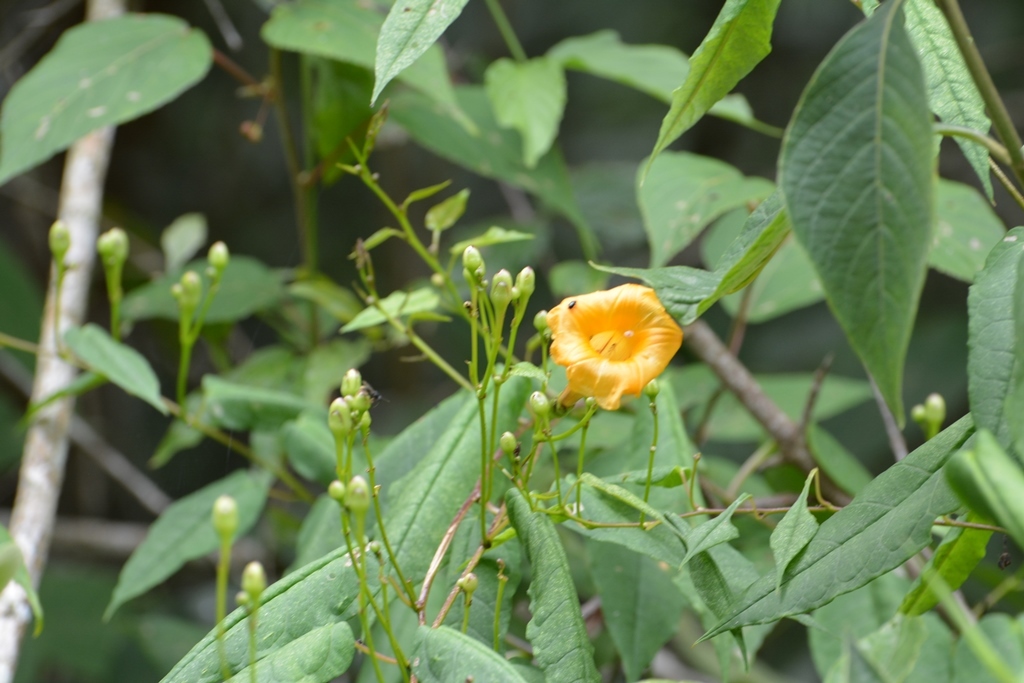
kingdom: Plantae
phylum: Tracheophyta
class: Magnoliopsida
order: Solanales
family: Convolvulaceae
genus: Ipomoea
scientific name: Ipomoea aurantiaca
